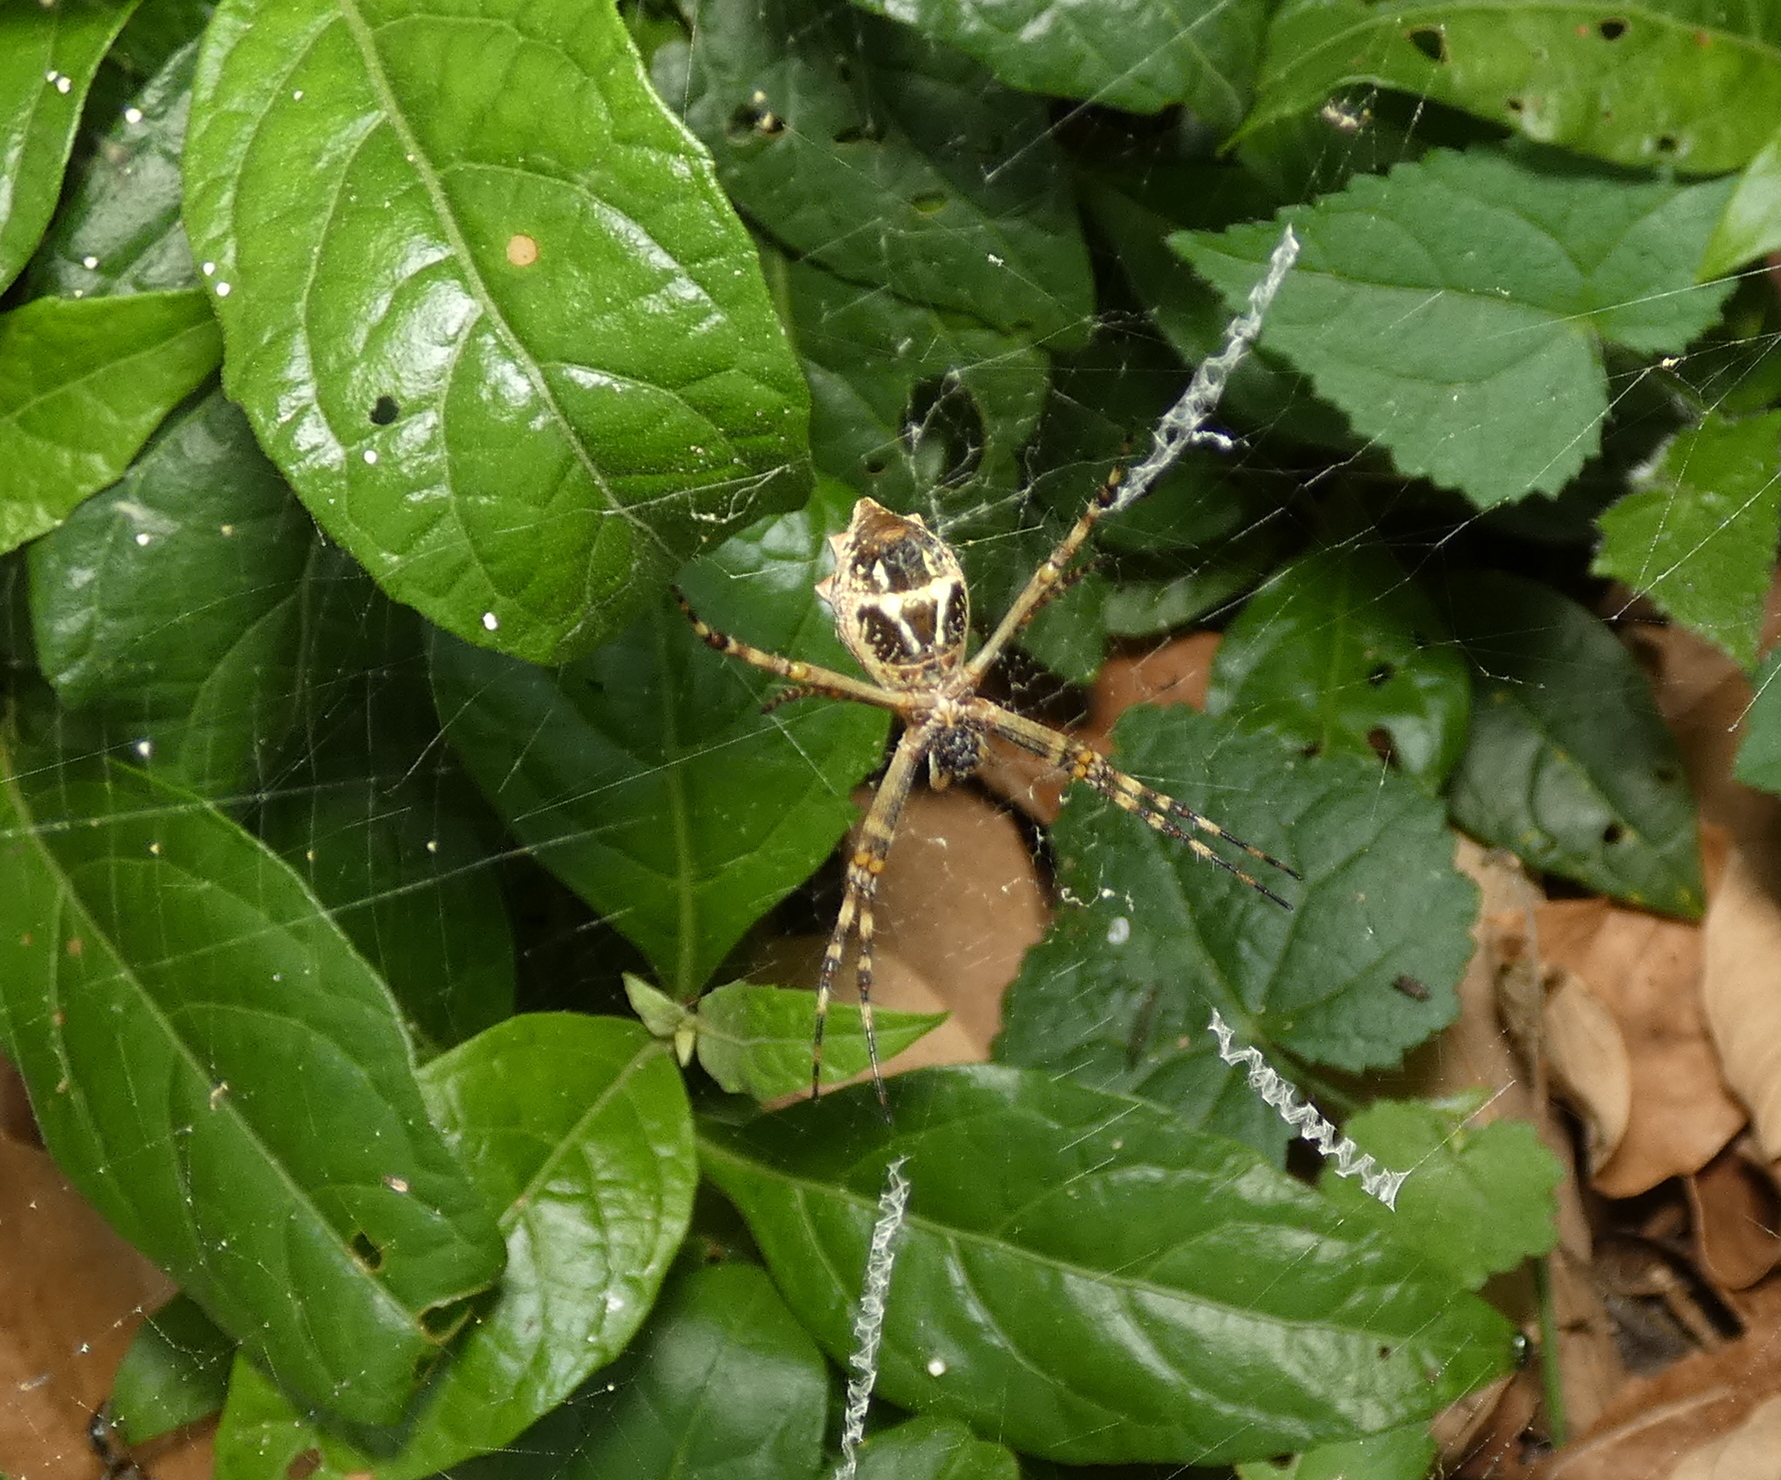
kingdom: Animalia
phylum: Arthropoda
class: Arachnida
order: Araneae
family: Araneidae
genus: Argiope
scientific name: Argiope argentata
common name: Orb weavers
